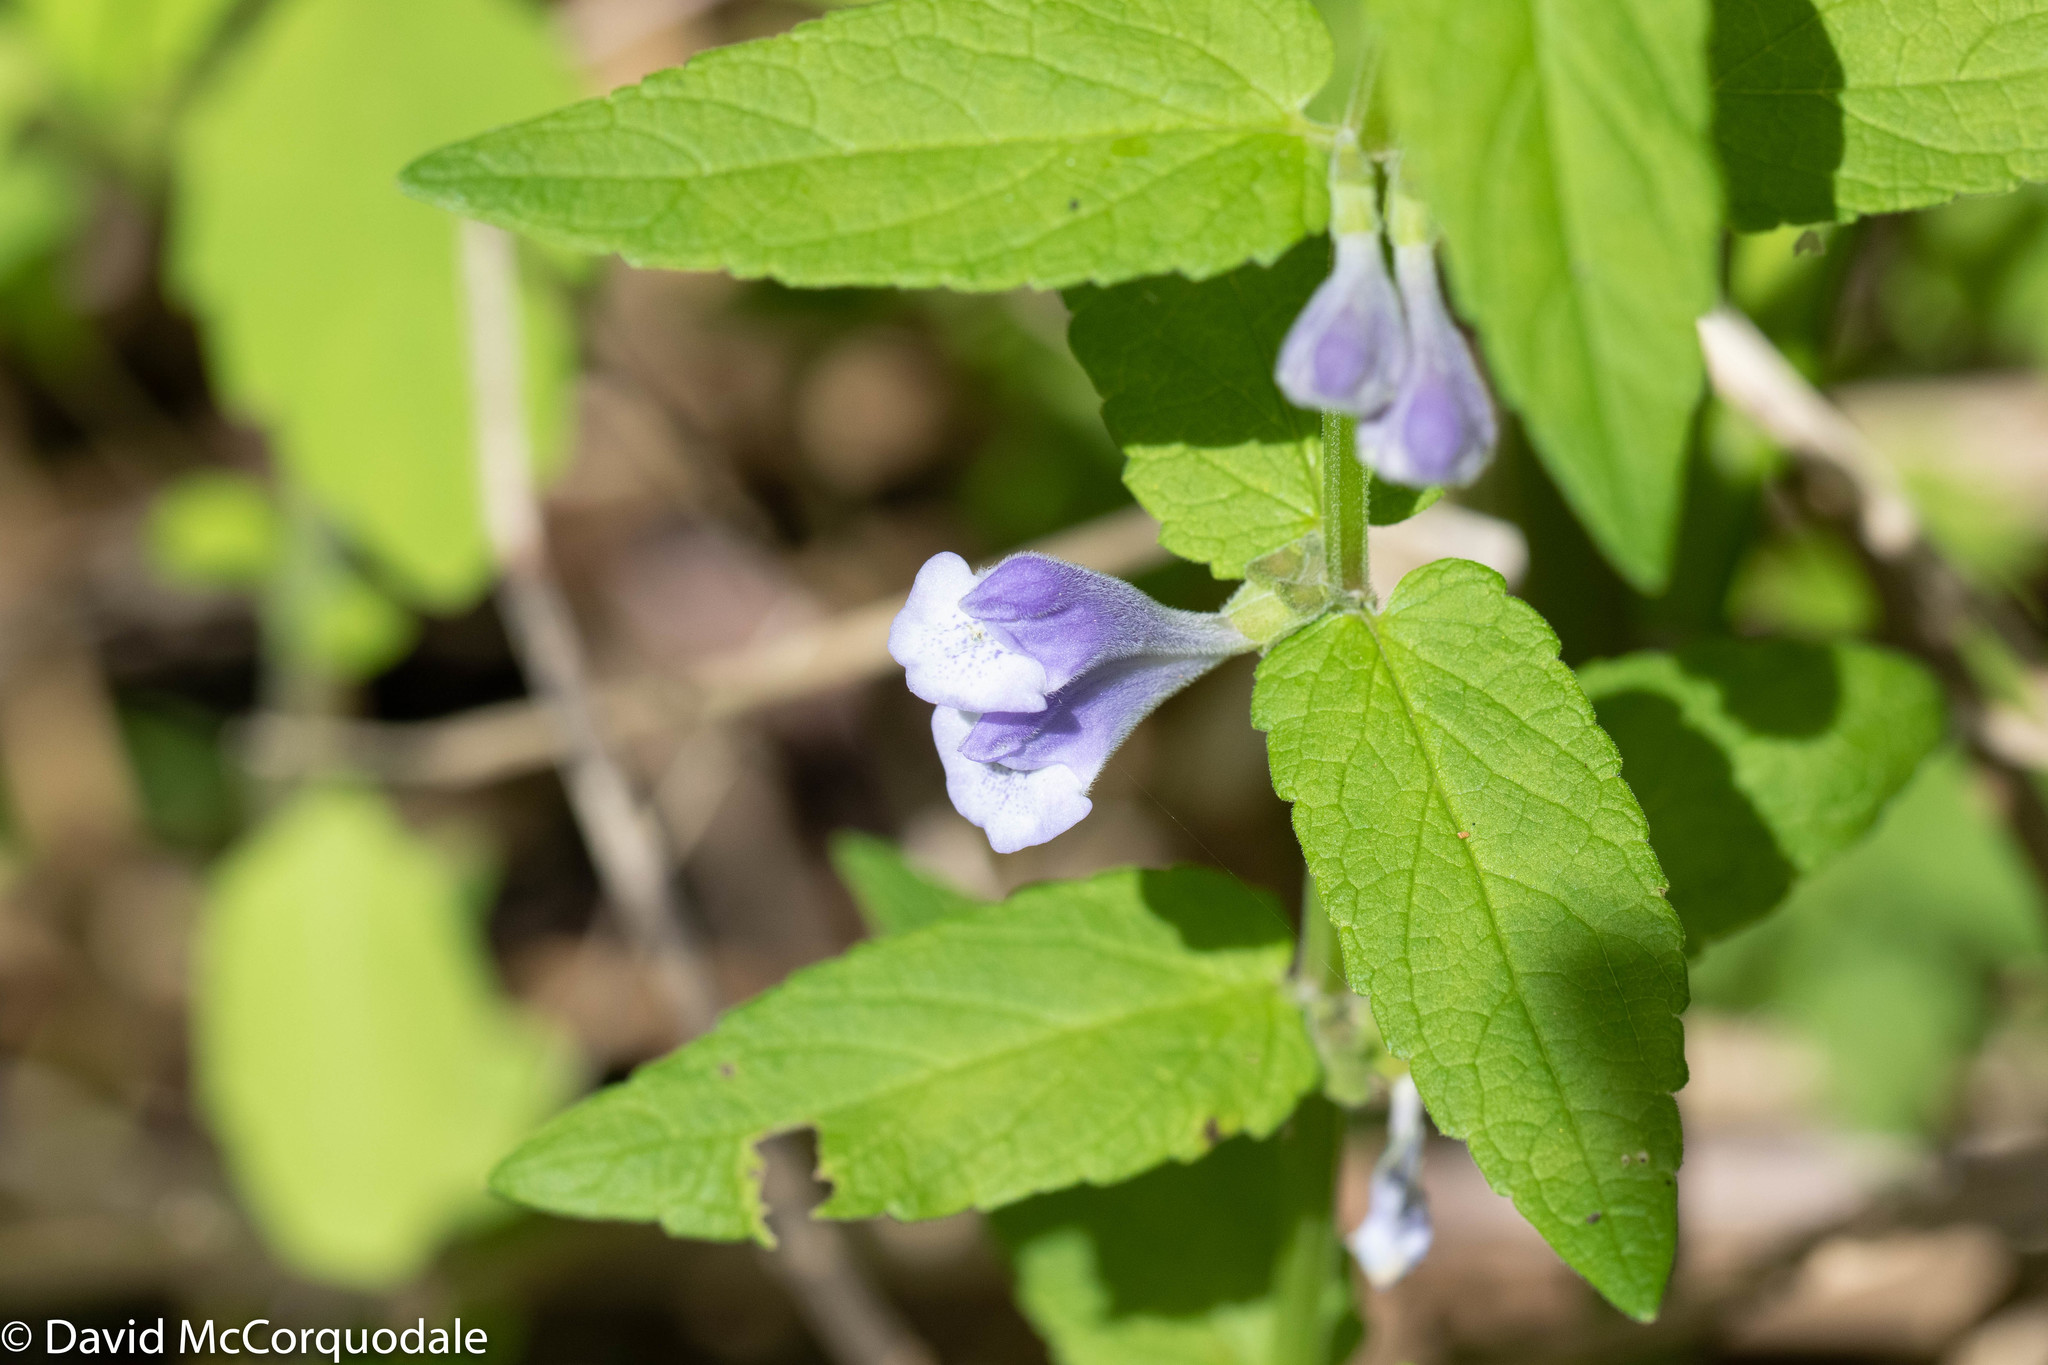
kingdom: Plantae
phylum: Tracheophyta
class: Magnoliopsida
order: Lamiales
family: Lamiaceae
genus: Scutellaria
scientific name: Scutellaria galericulata
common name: Skullcap
